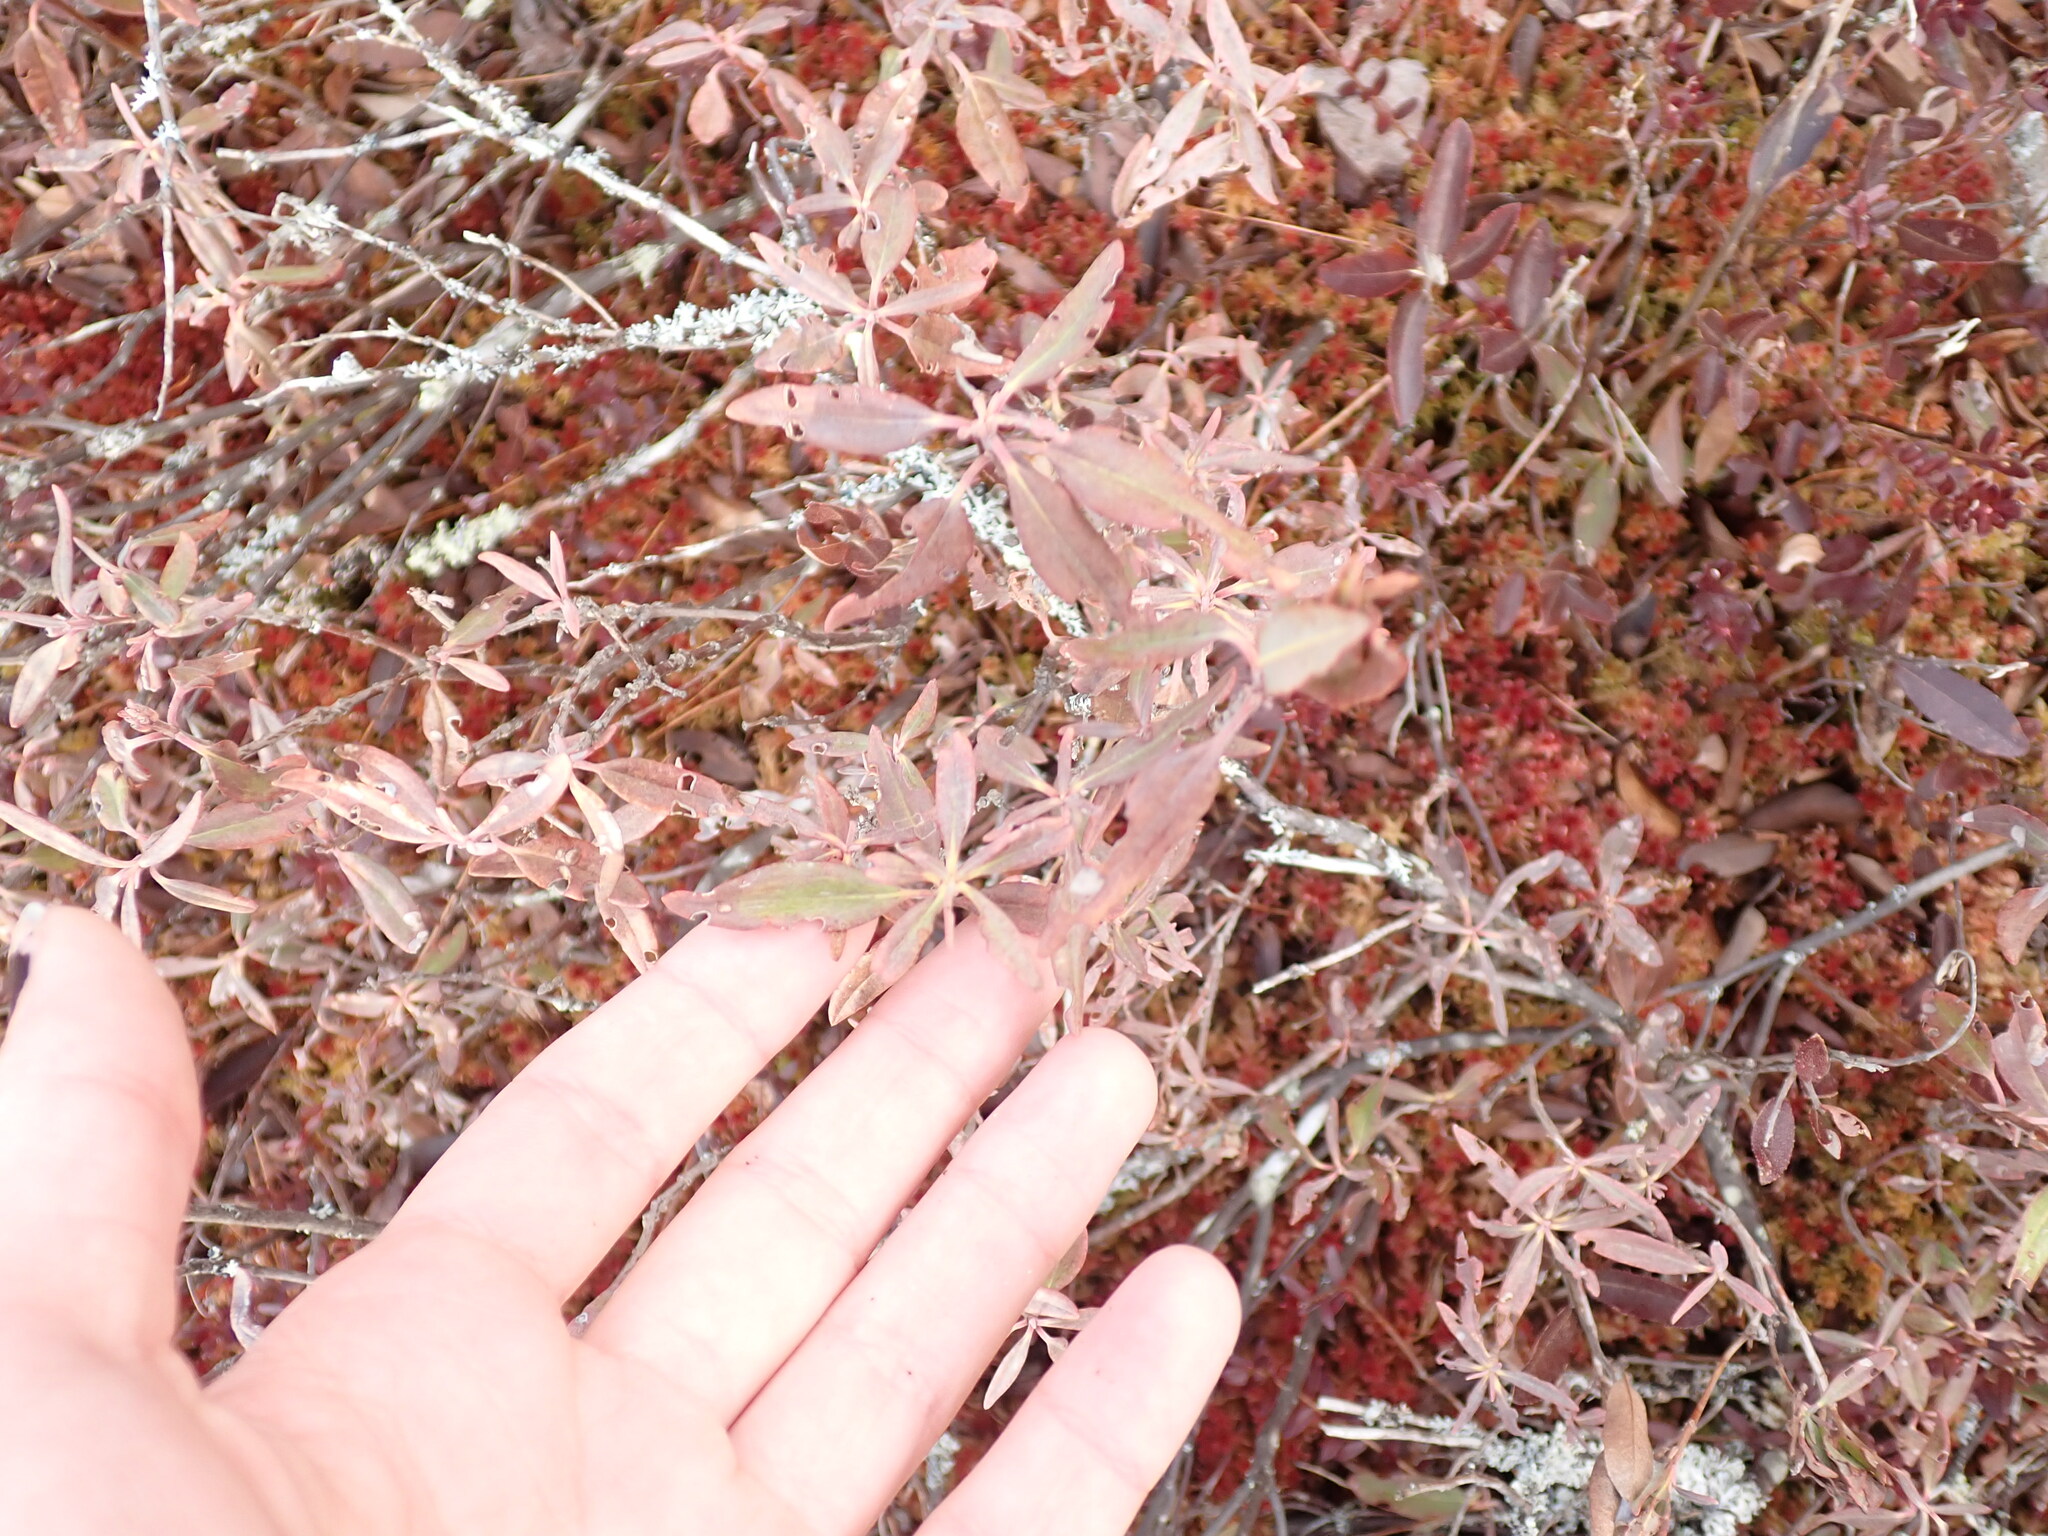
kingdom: Plantae
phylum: Tracheophyta
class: Magnoliopsida
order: Ericales
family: Ericaceae
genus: Kalmia
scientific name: Kalmia angustifolia
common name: Sheep-laurel
